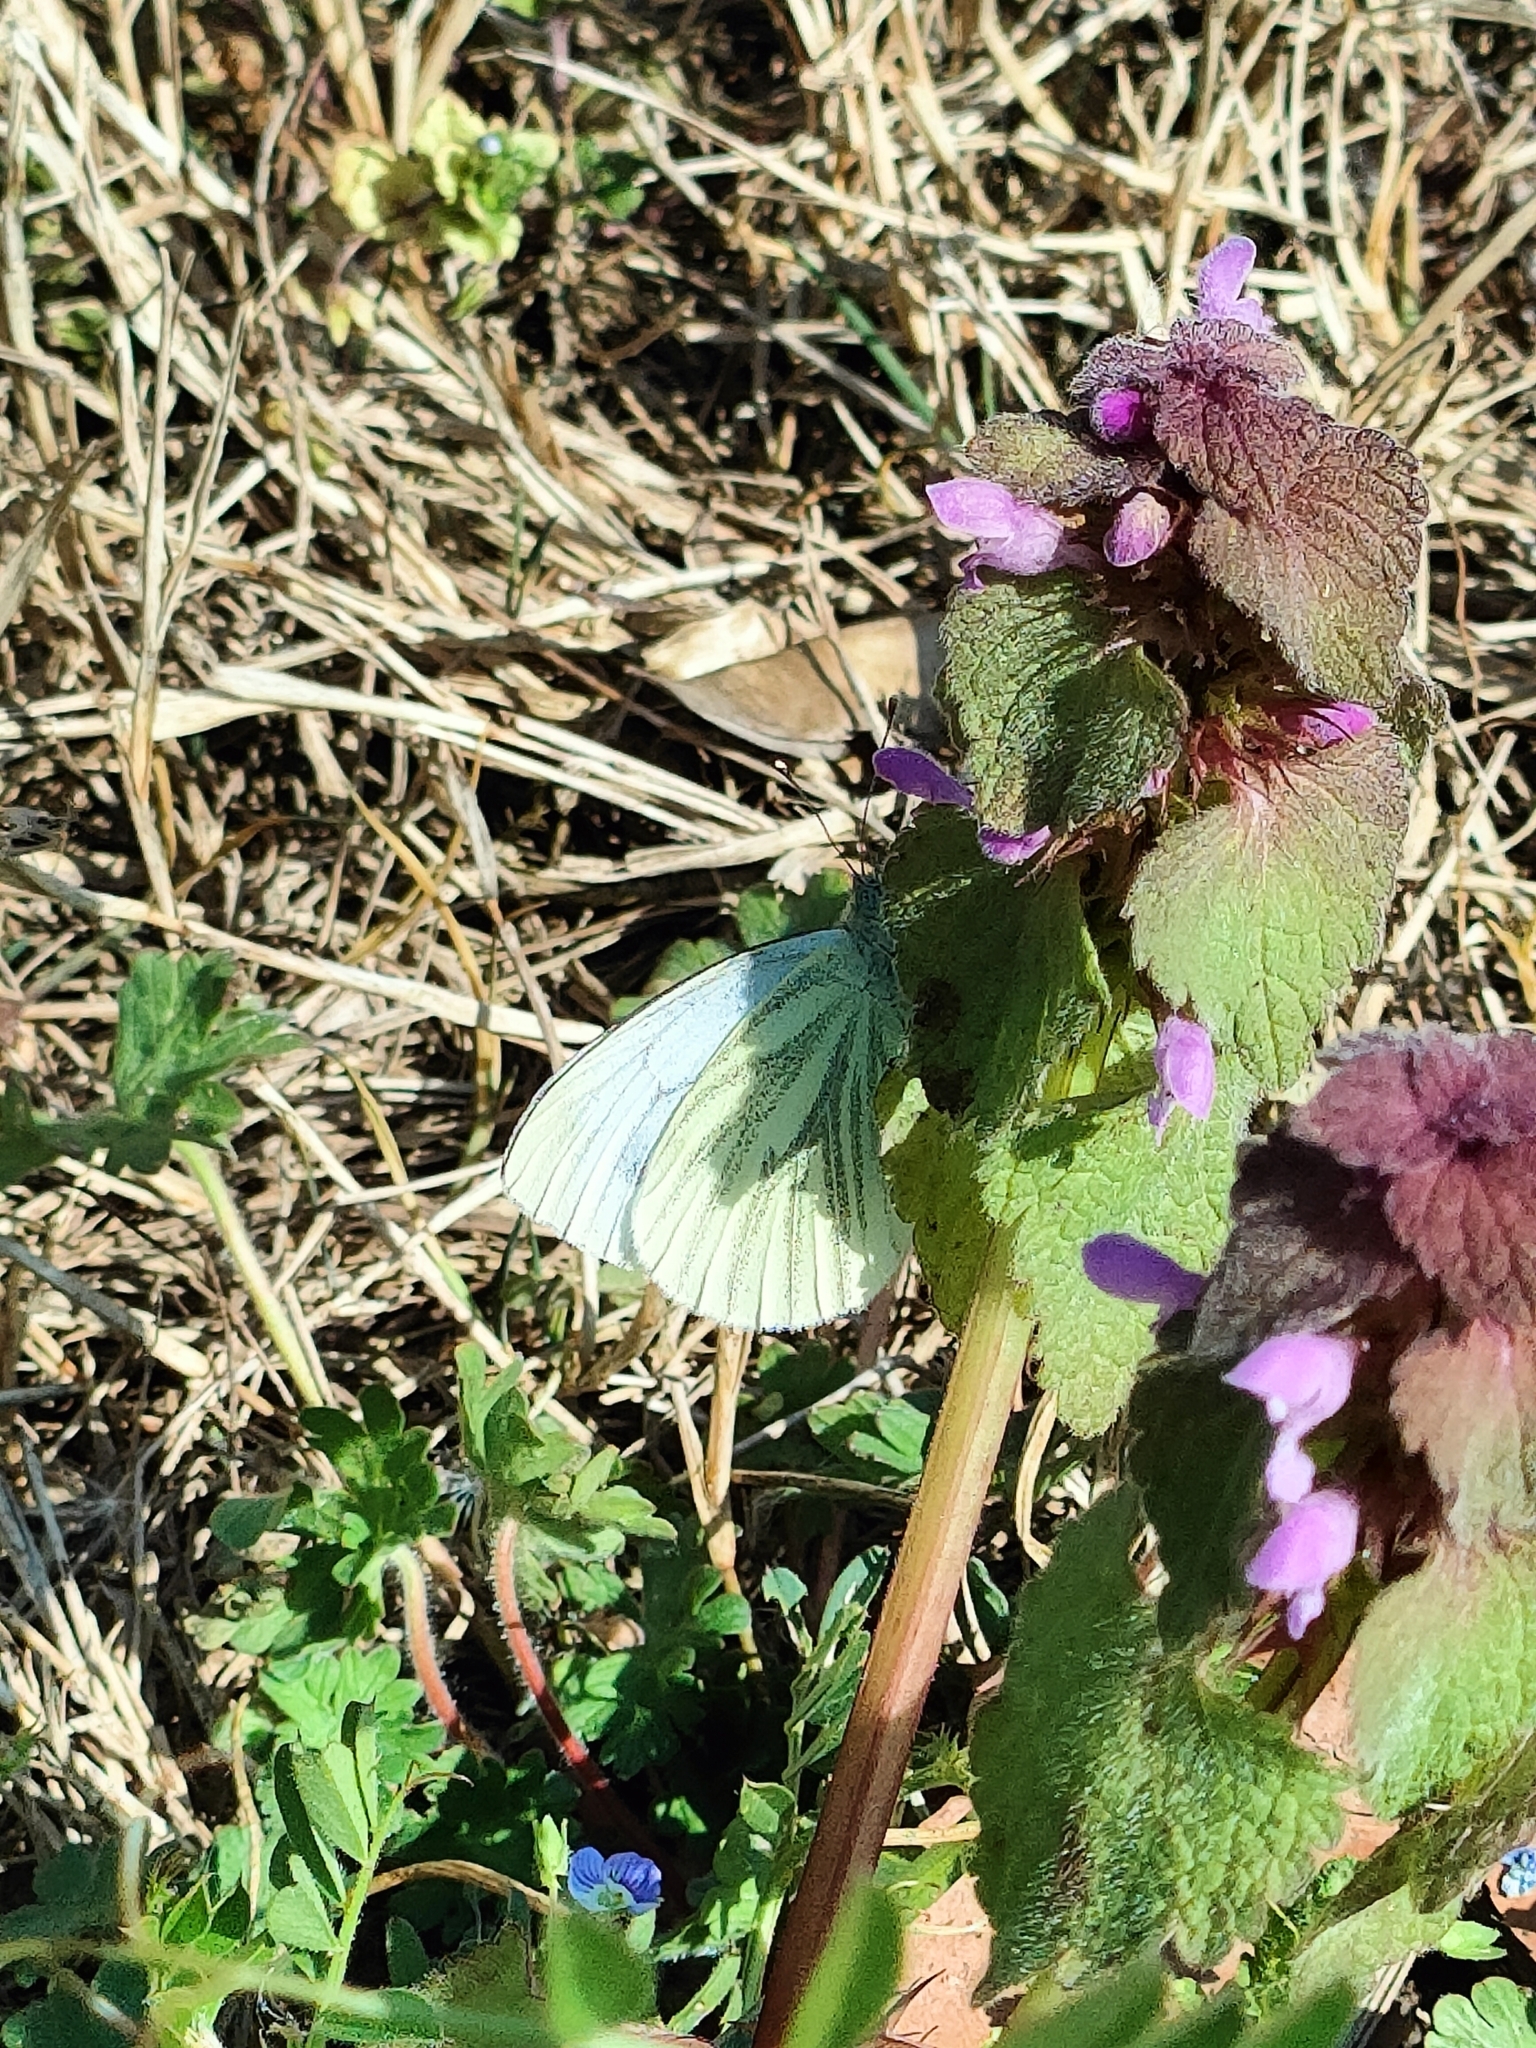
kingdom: Animalia
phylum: Arthropoda
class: Insecta
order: Lepidoptera
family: Pieridae
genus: Pieris
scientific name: Pieris napi
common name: Green-veined white
